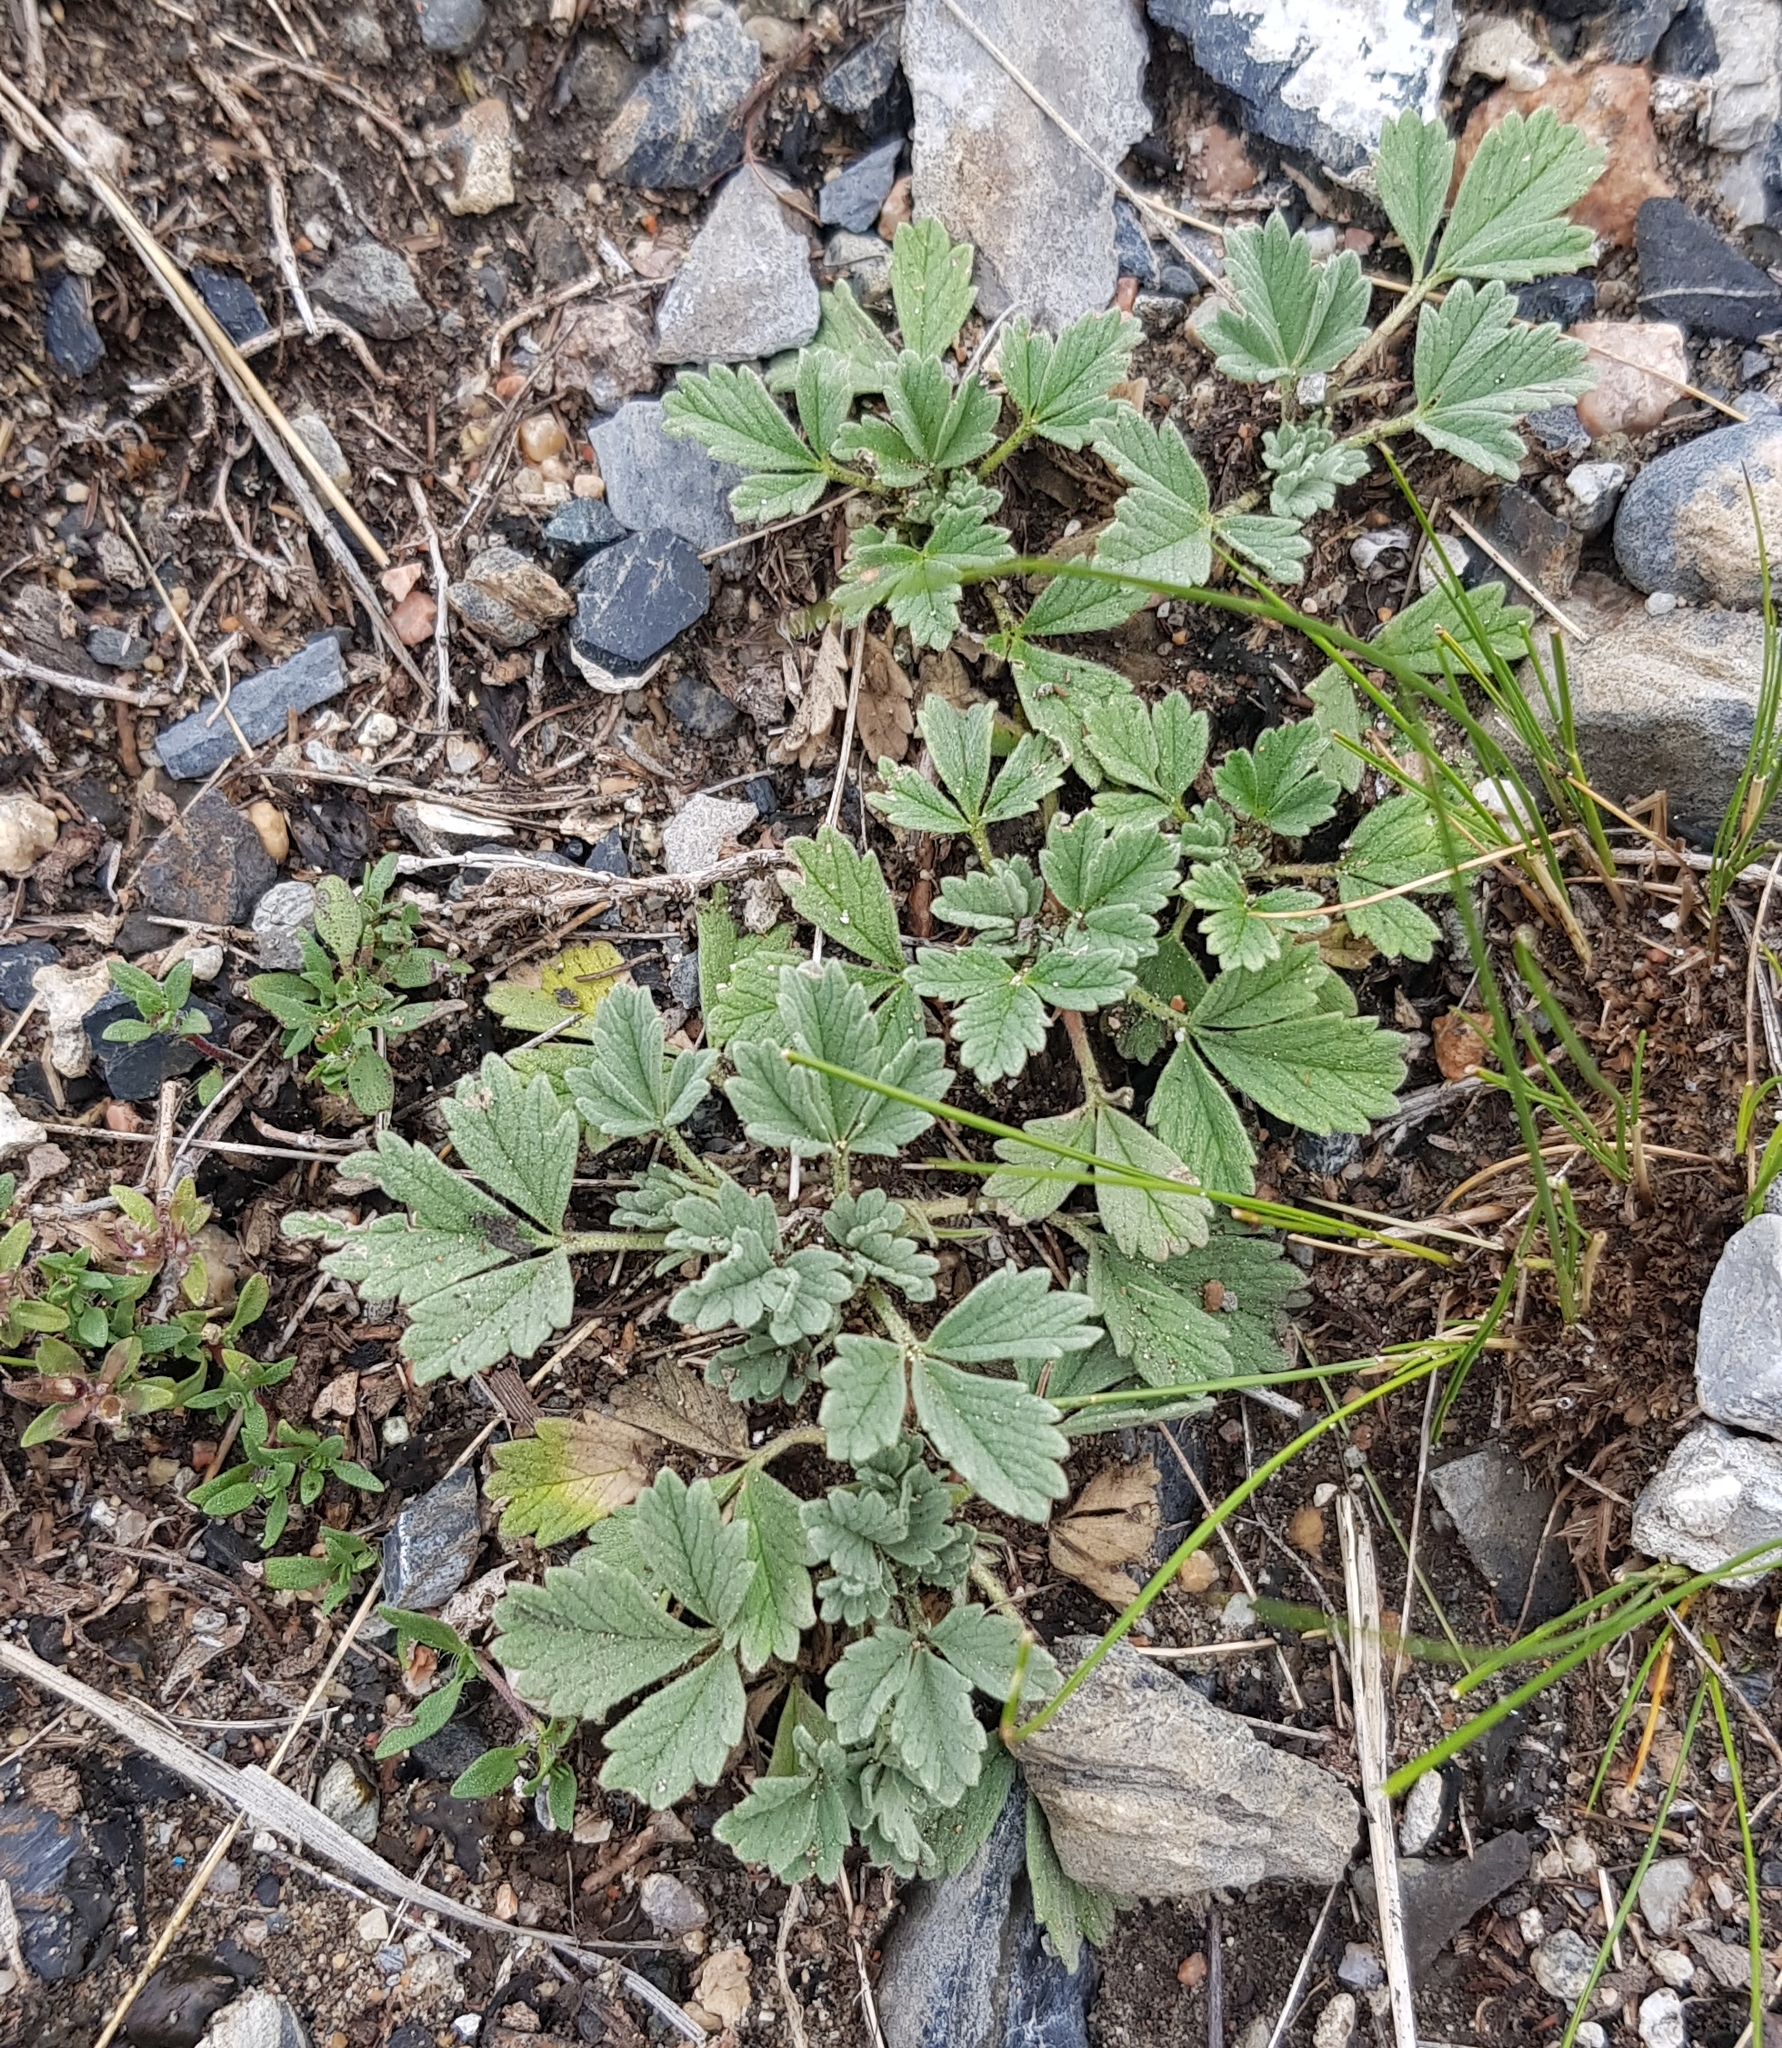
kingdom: Plantae
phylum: Tracheophyta
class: Magnoliopsida
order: Rosales
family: Rosaceae
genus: Potentilla
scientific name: Potentilla acaulis
